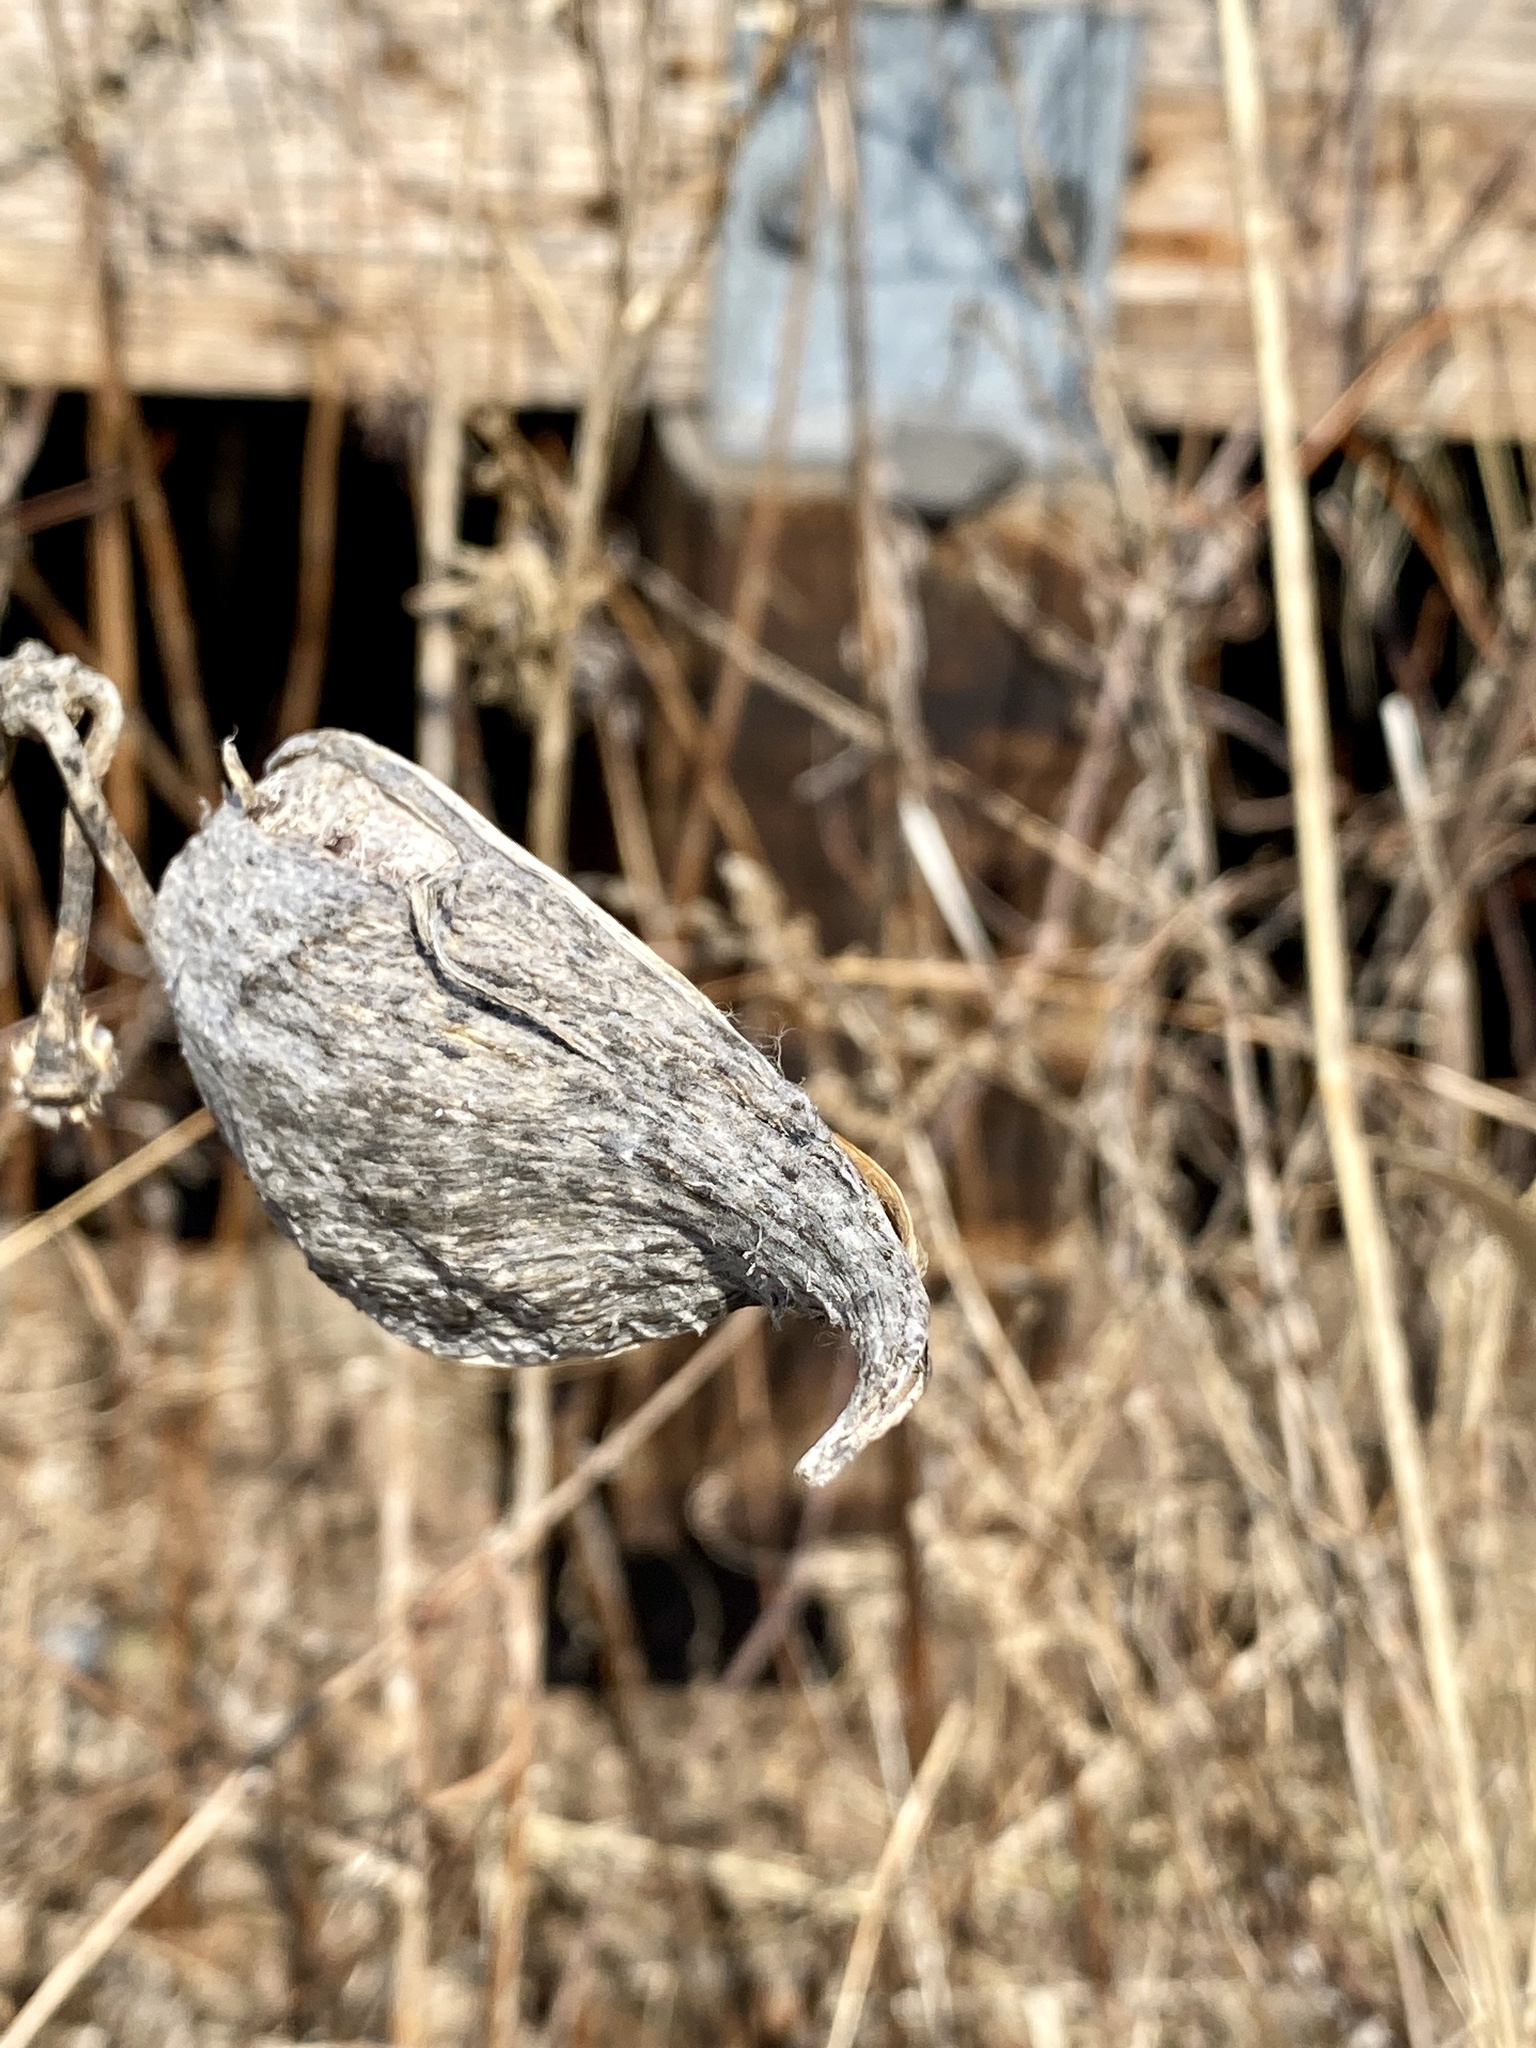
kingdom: Plantae
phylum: Tracheophyta
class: Magnoliopsida
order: Gentianales
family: Apocynaceae
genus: Asclepias
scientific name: Asclepias syriaca
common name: Common milkweed
